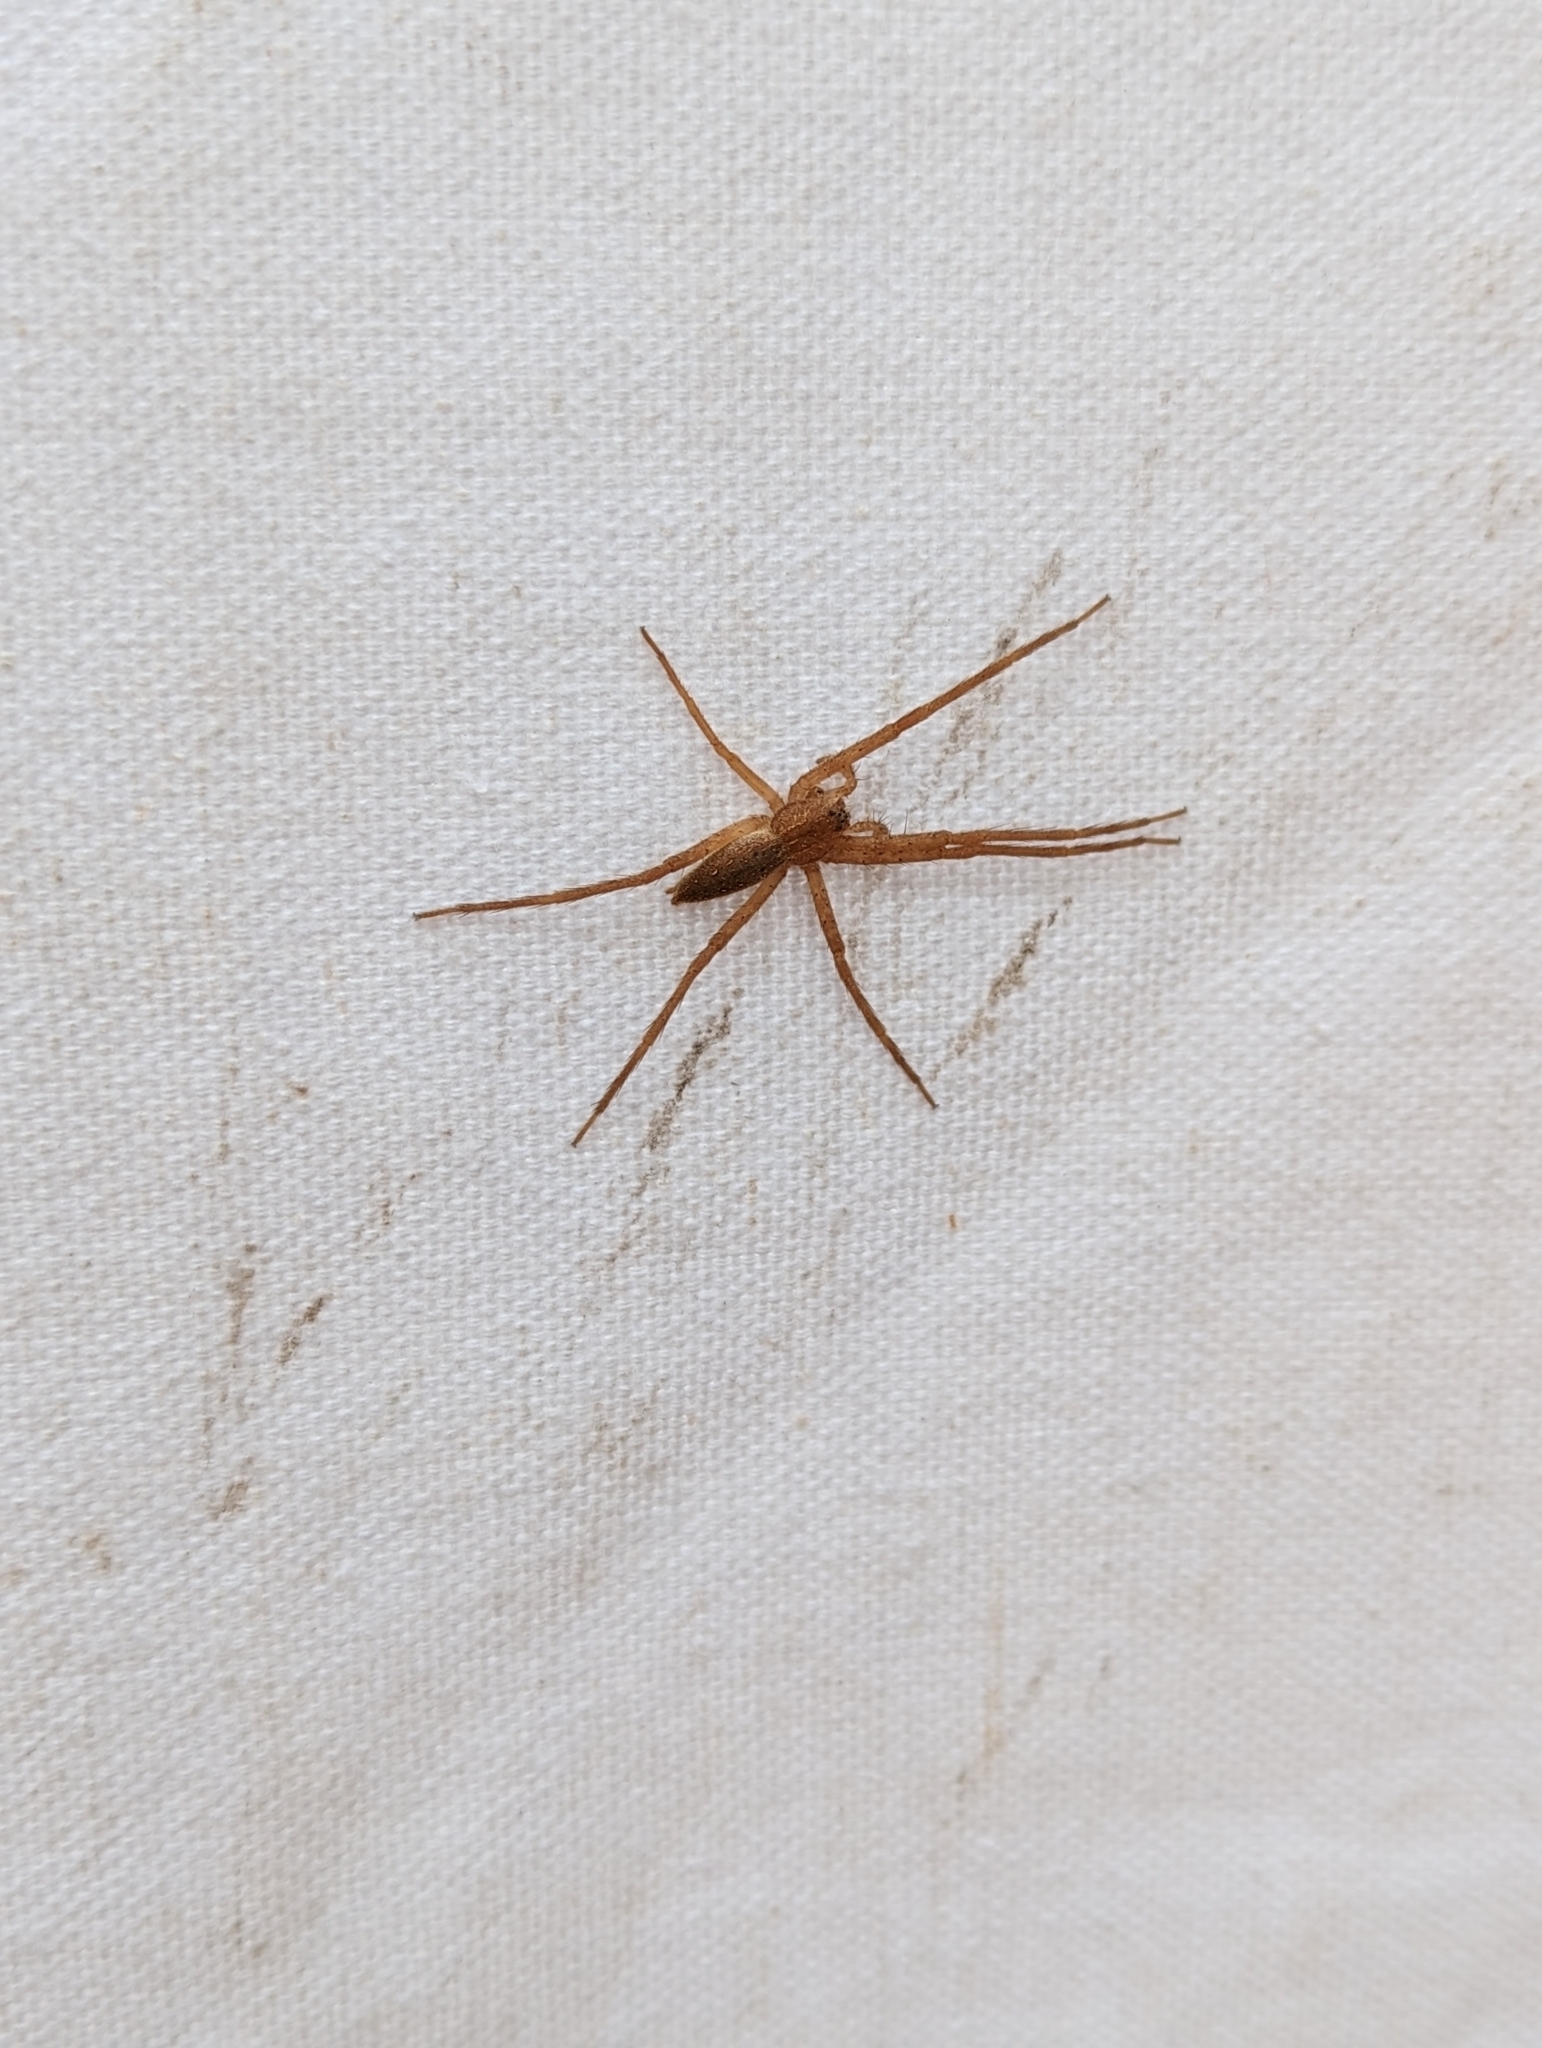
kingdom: Animalia
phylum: Arthropoda
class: Arachnida
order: Araneae
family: Pisauridae
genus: Pisaurina
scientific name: Pisaurina mira
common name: American nursery web spider
